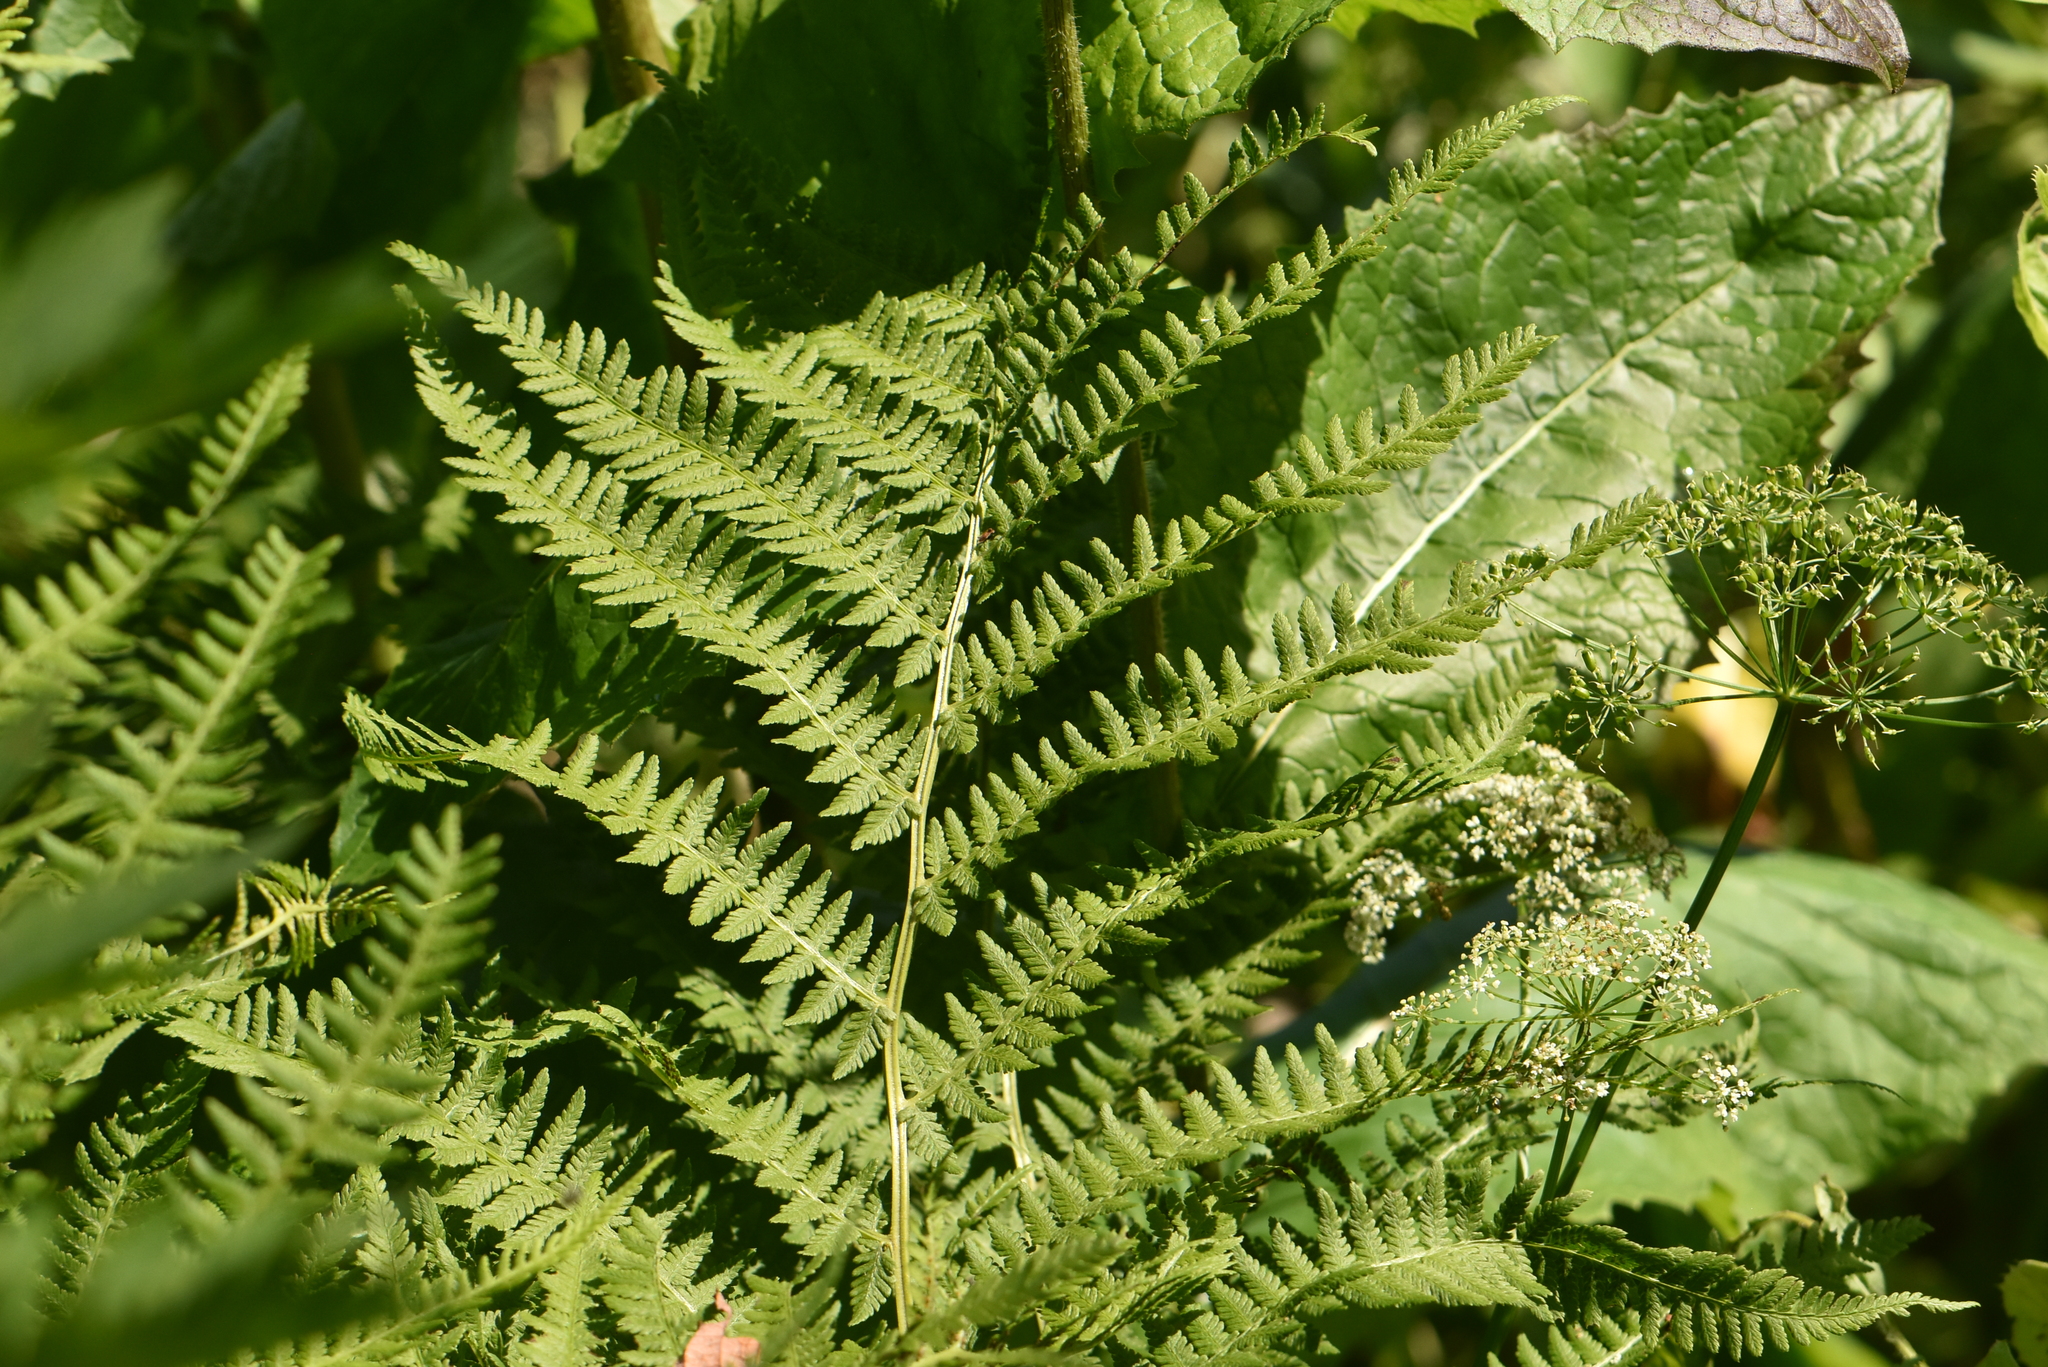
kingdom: Plantae
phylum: Tracheophyta
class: Polypodiopsida
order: Polypodiales
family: Athyriaceae
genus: Athyrium
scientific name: Athyrium filix-femina
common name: Lady fern
